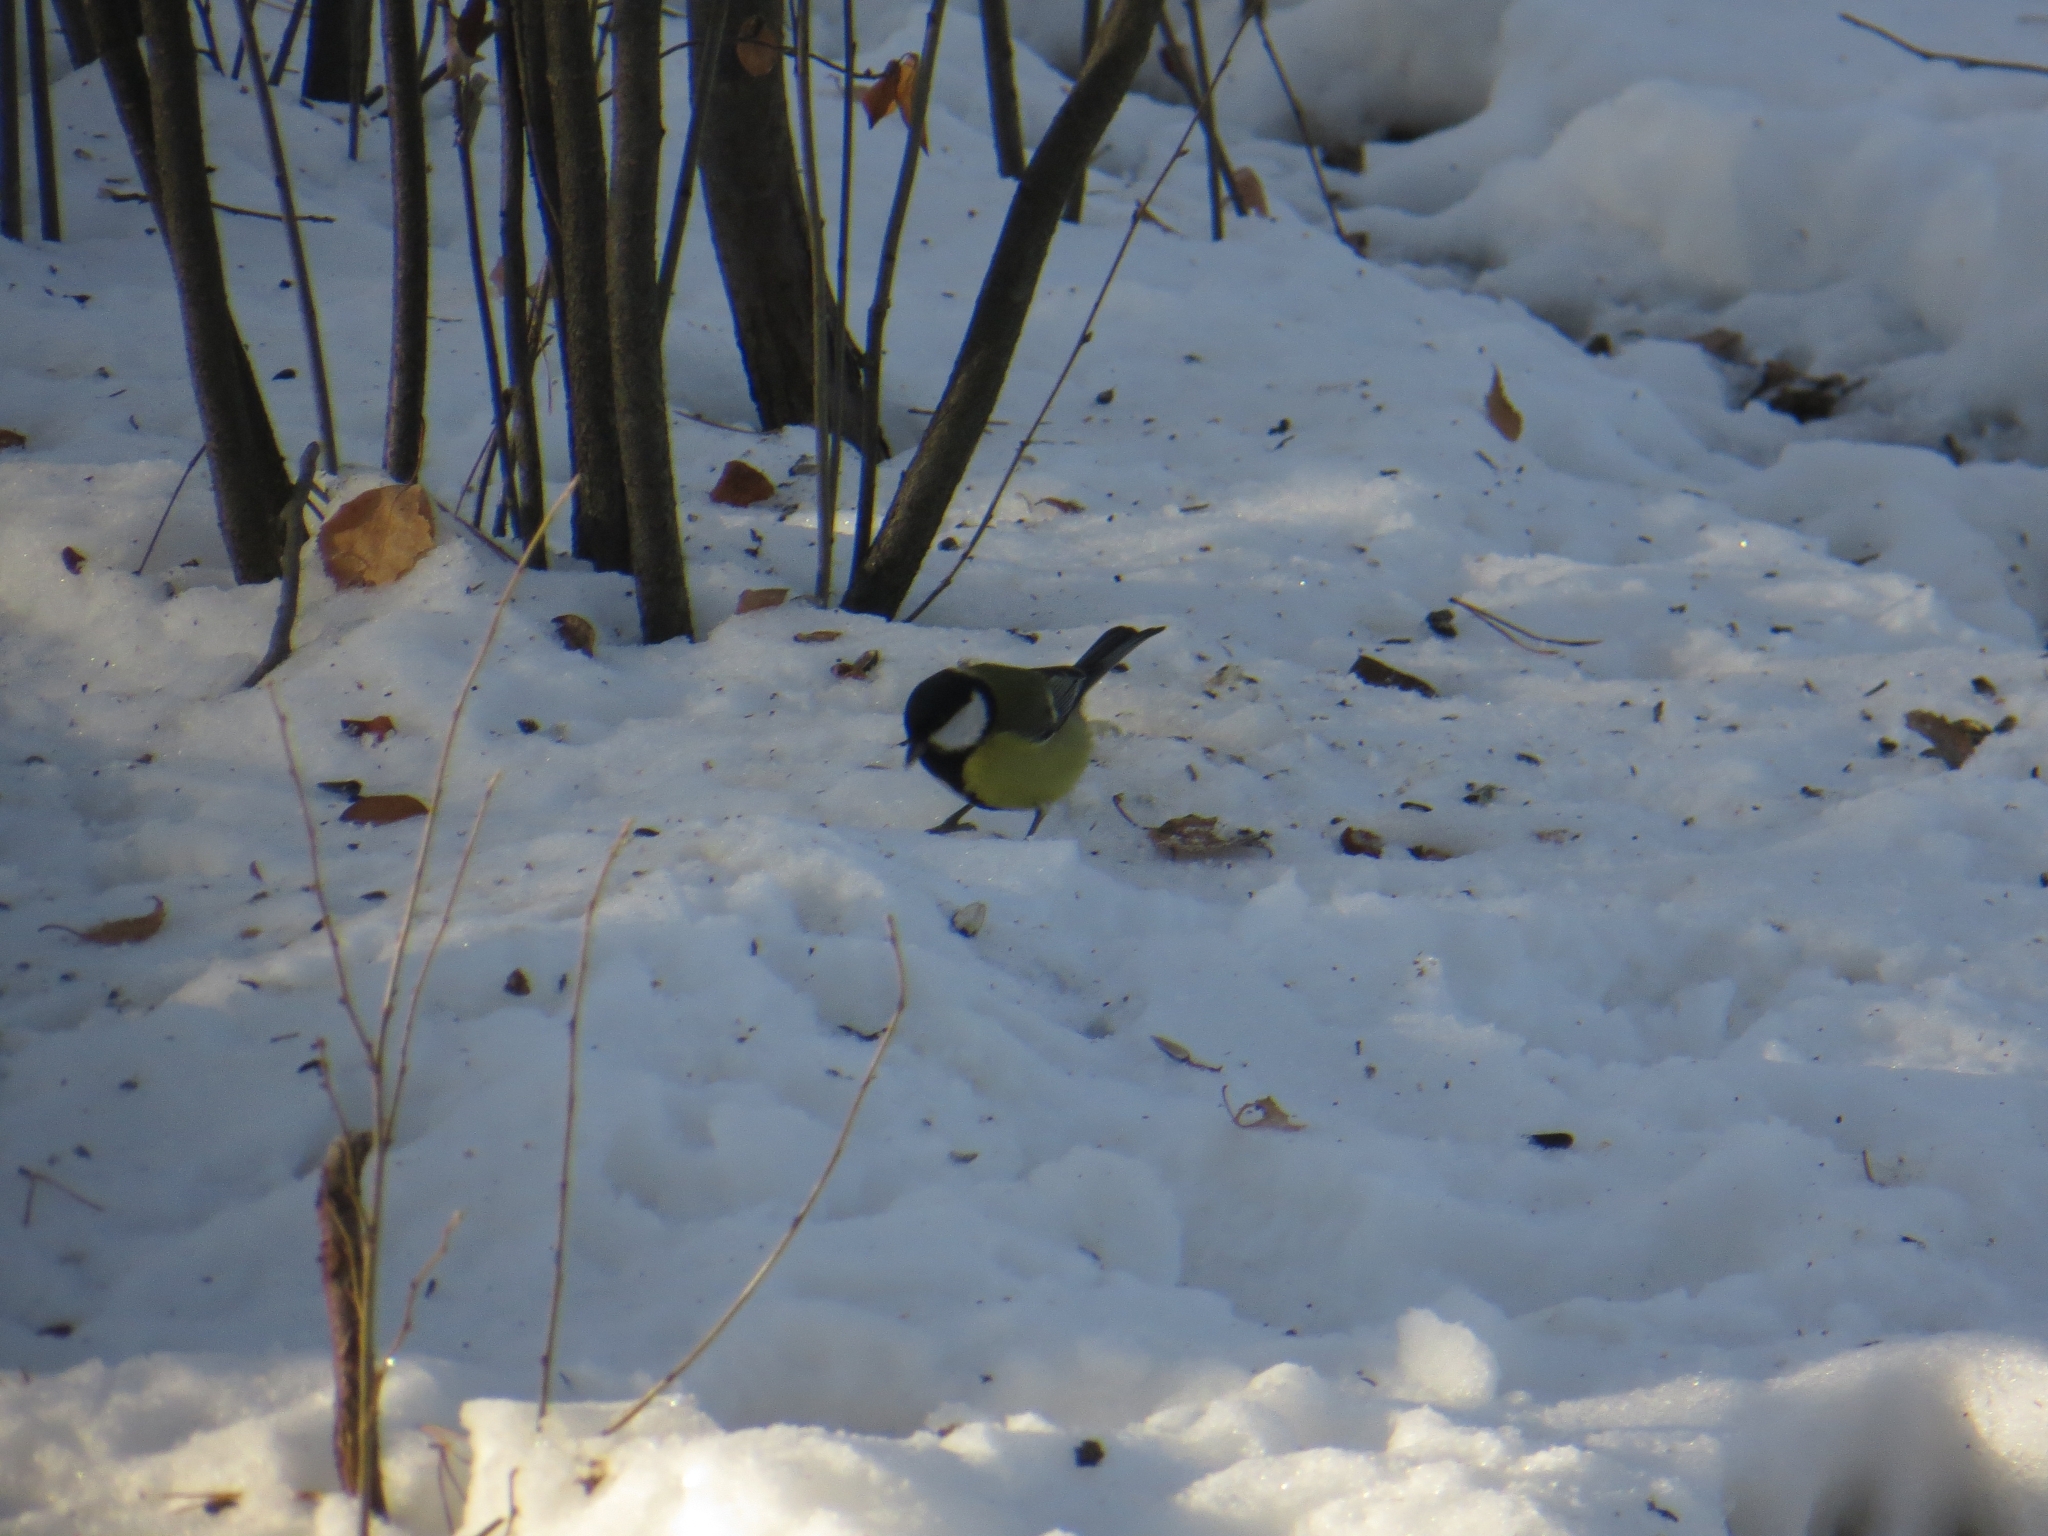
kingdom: Animalia
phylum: Chordata
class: Aves
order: Passeriformes
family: Paridae
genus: Parus
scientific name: Parus major
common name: Great tit
